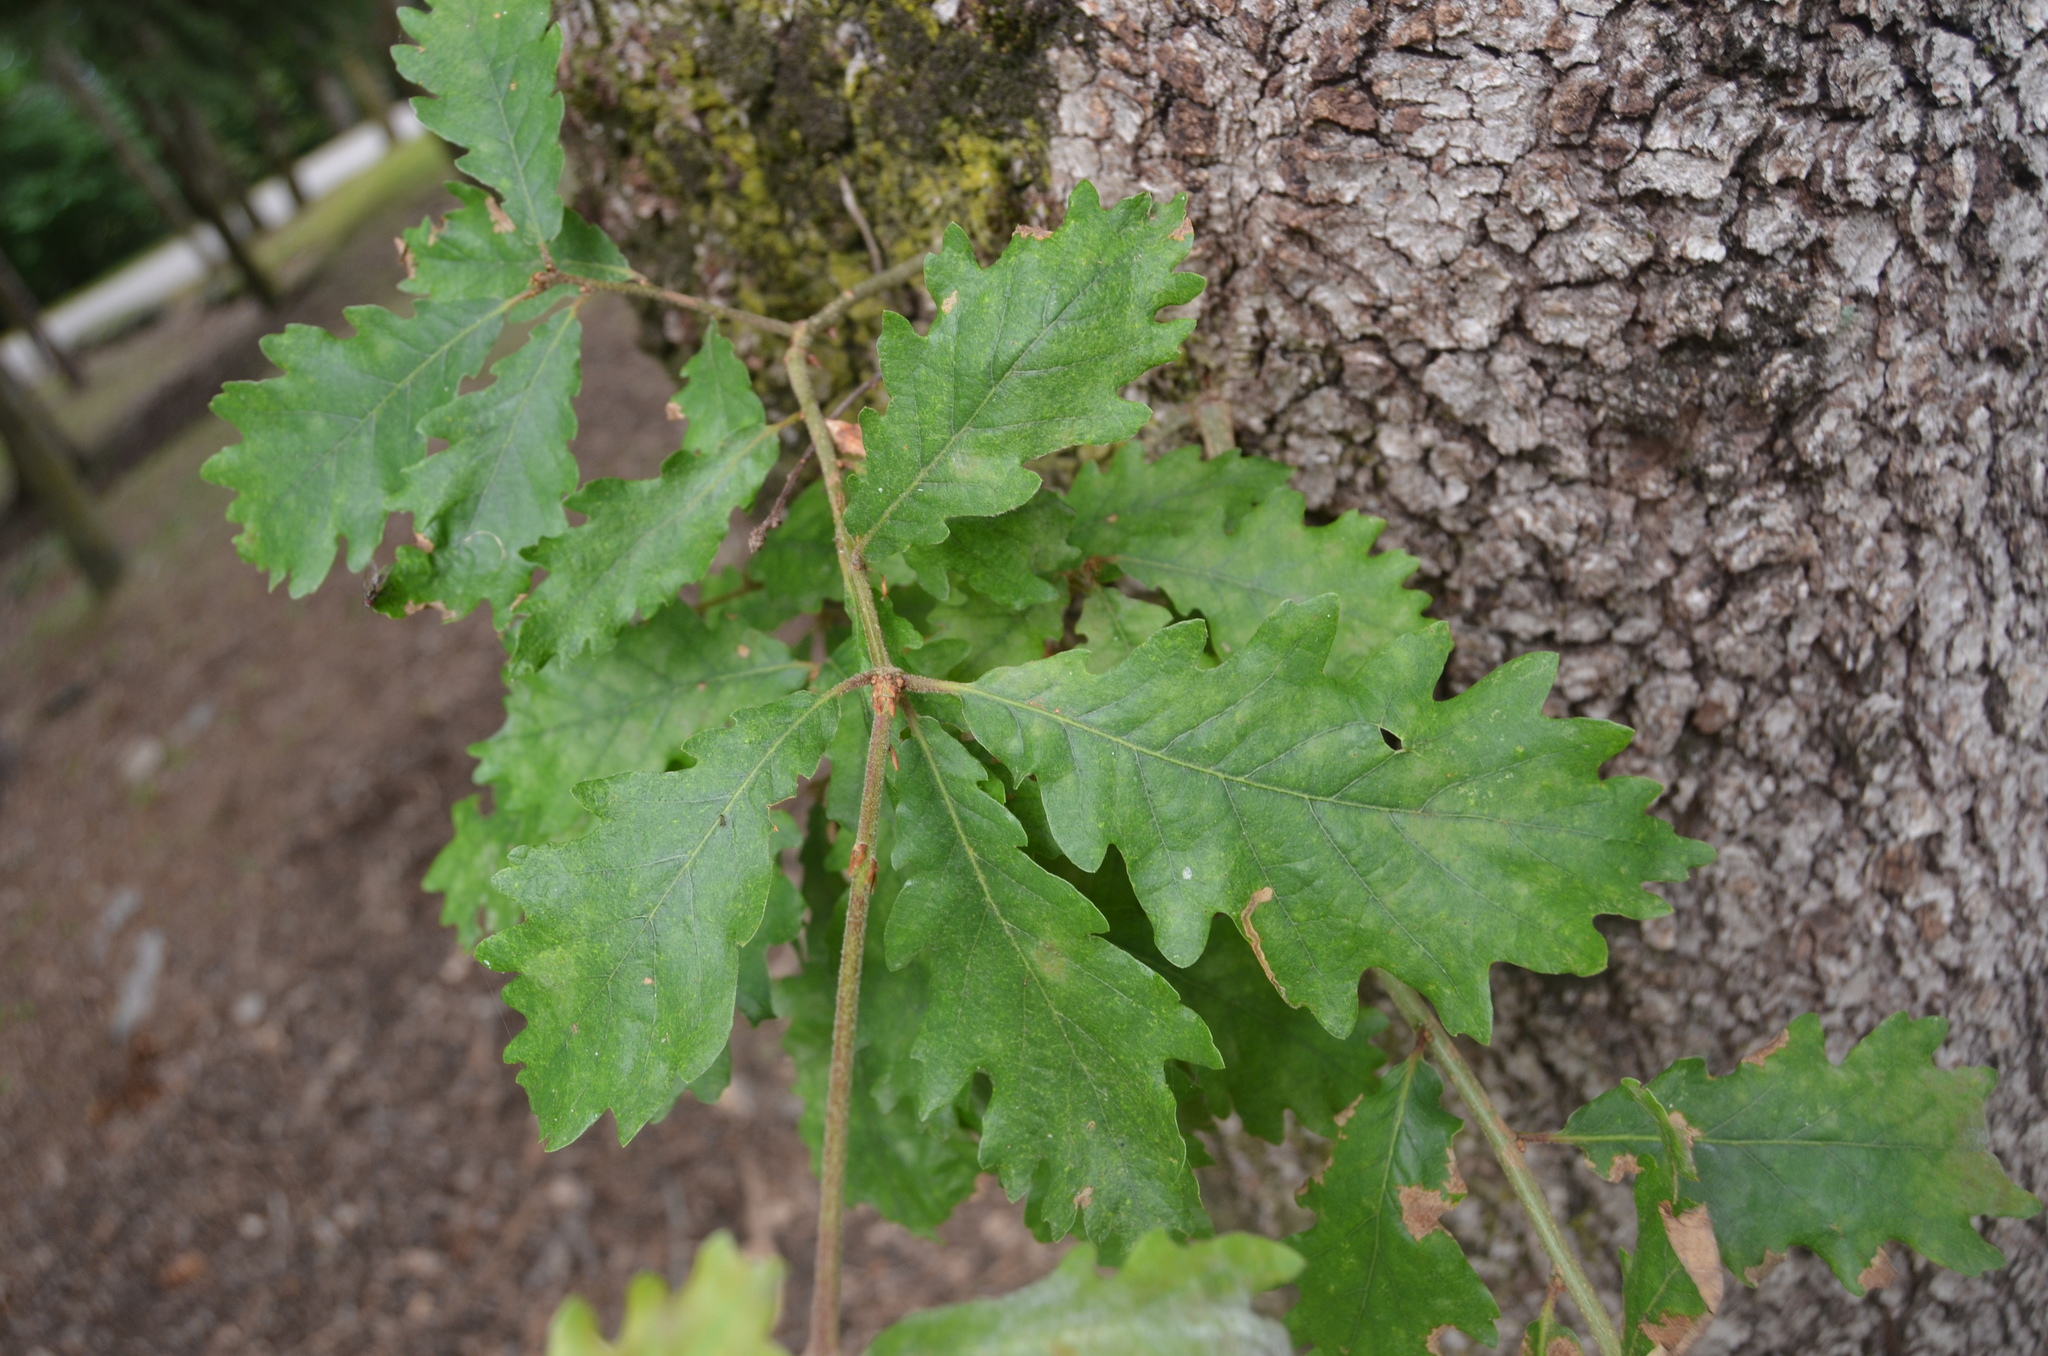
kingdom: Plantae
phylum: Tracheophyta
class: Magnoliopsida
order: Fagales
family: Fagaceae
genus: Quercus
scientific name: Quercus petraea
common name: Sessile oak
